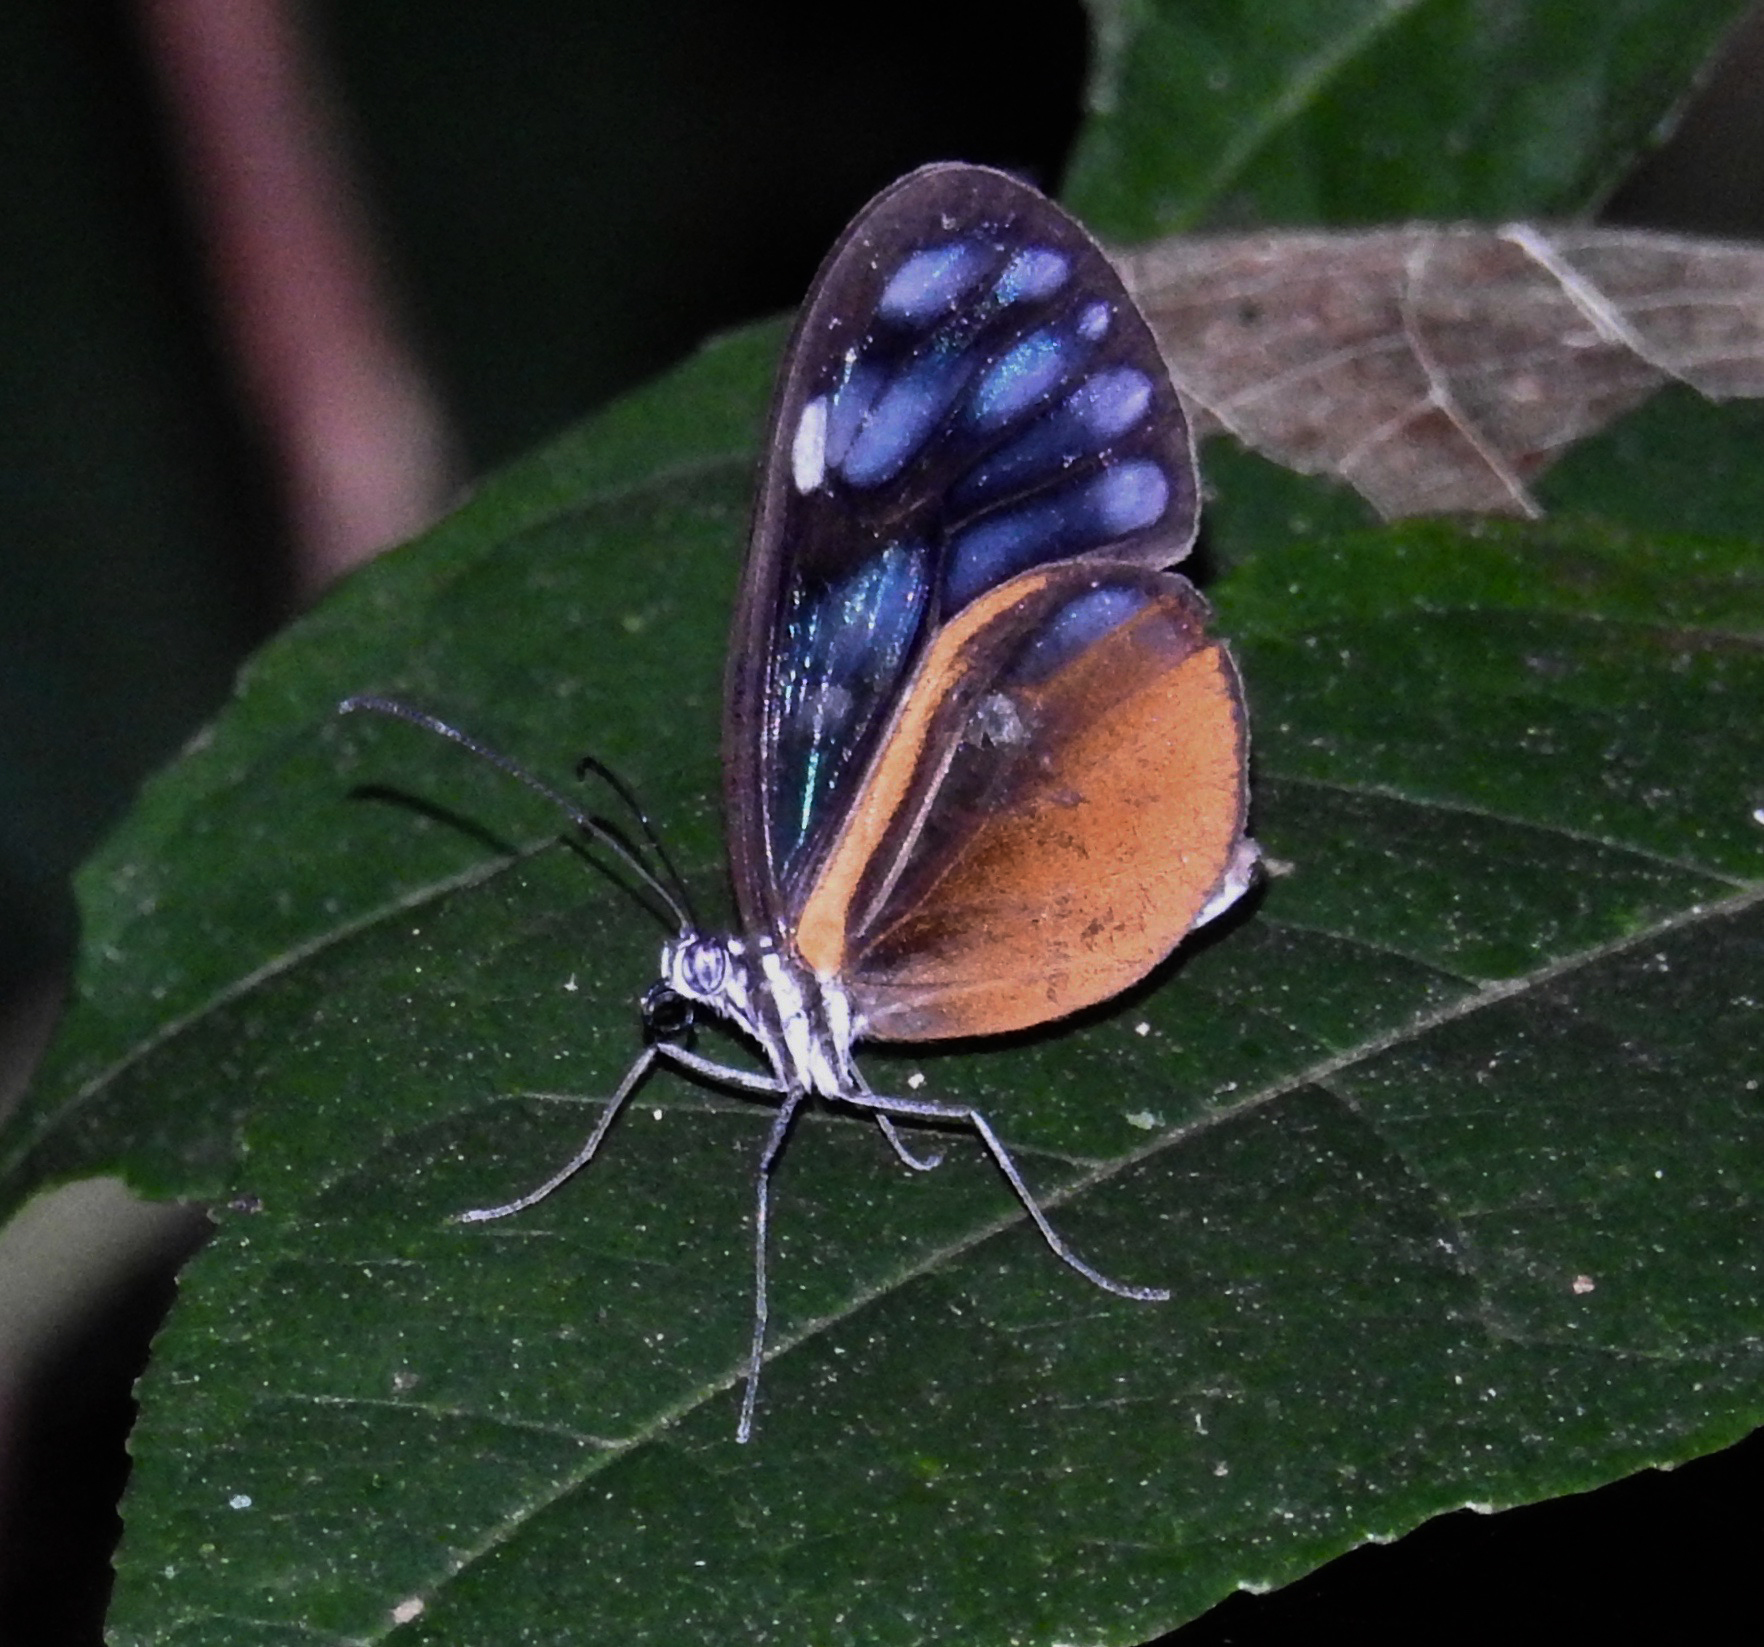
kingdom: Animalia
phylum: Arthropoda
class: Insecta
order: Lepidoptera
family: Nymphalidae
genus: Hypoleria
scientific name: Hypoleria lavinia
